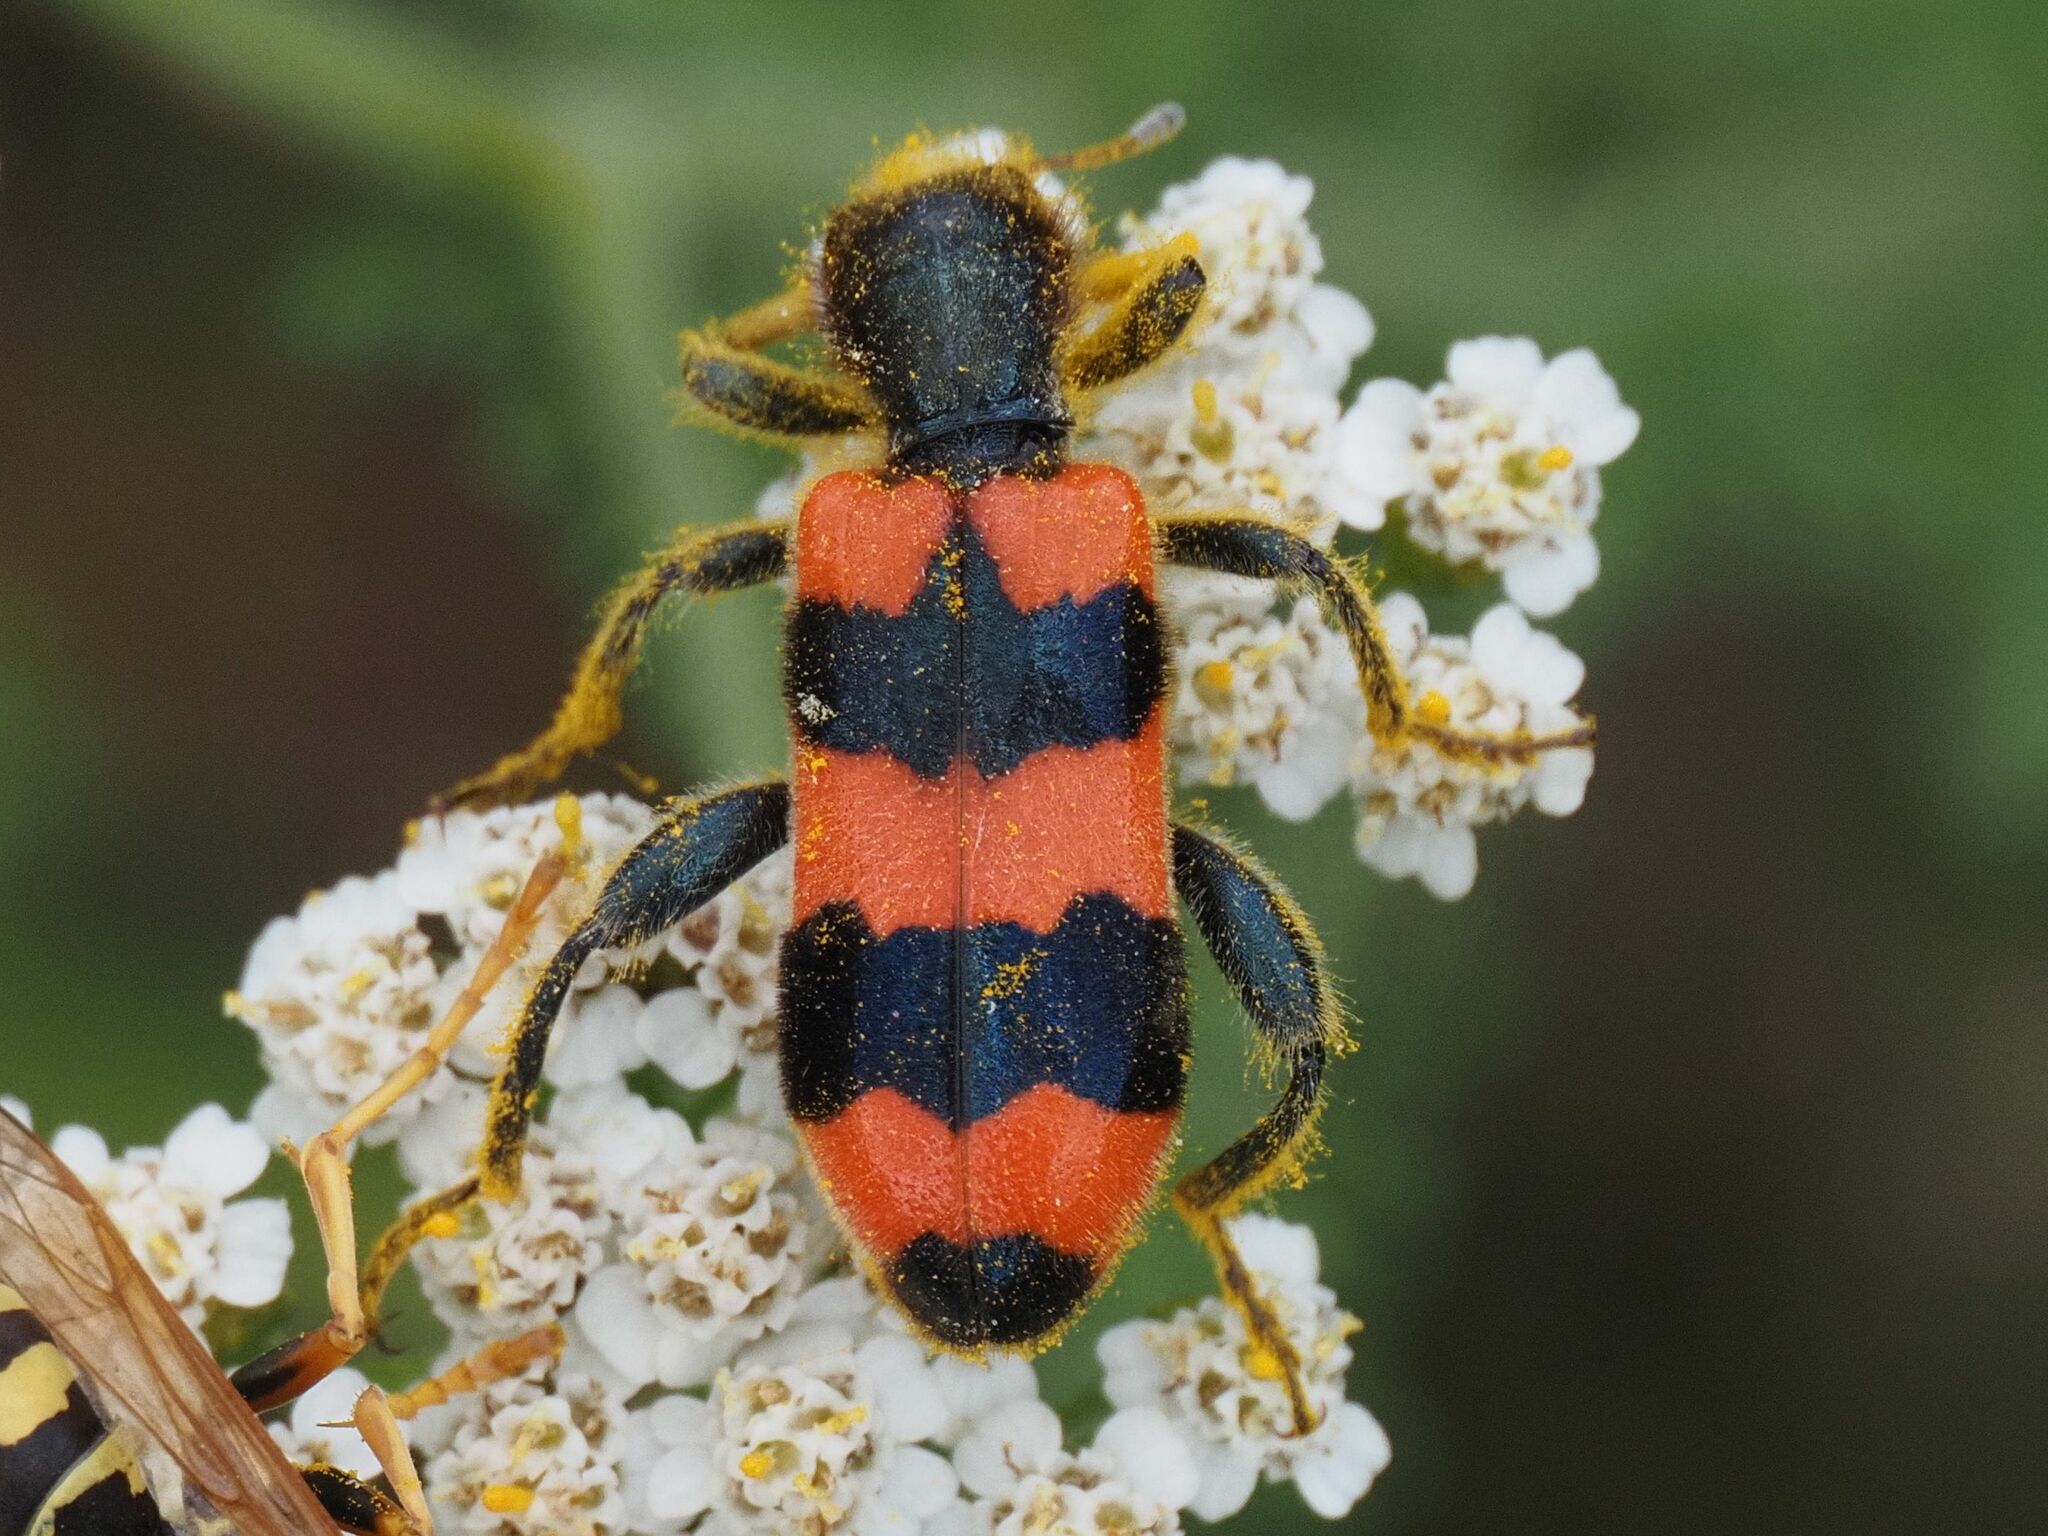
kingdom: Animalia
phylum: Arthropoda
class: Insecta
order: Coleoptera
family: Cleridae
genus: Trichodes
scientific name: Trichodes apiarius
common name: Bee-eating beetle
